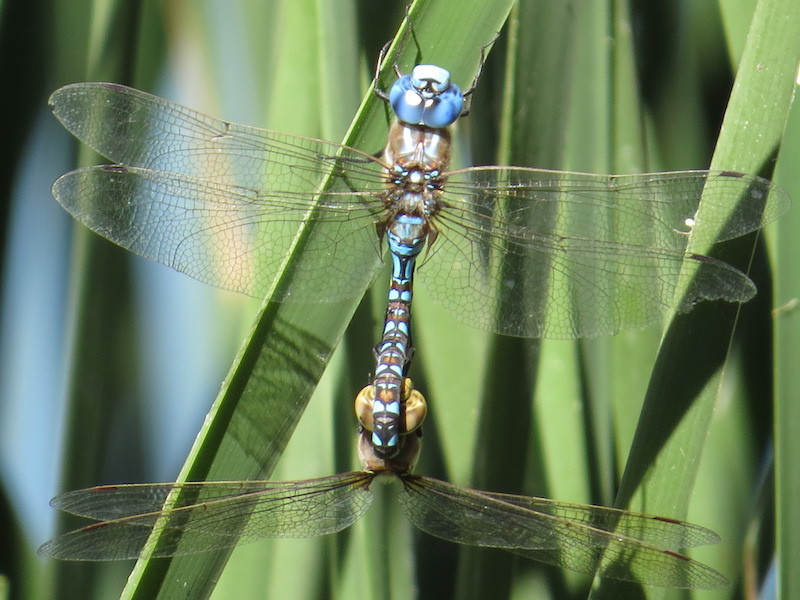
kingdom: Animalia
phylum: Arthropoda
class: Insecta
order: Odonata
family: Aeshnidae
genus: Rhionaeschna
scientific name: Rhionaeschna multicolor
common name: Blue-eyed darner
